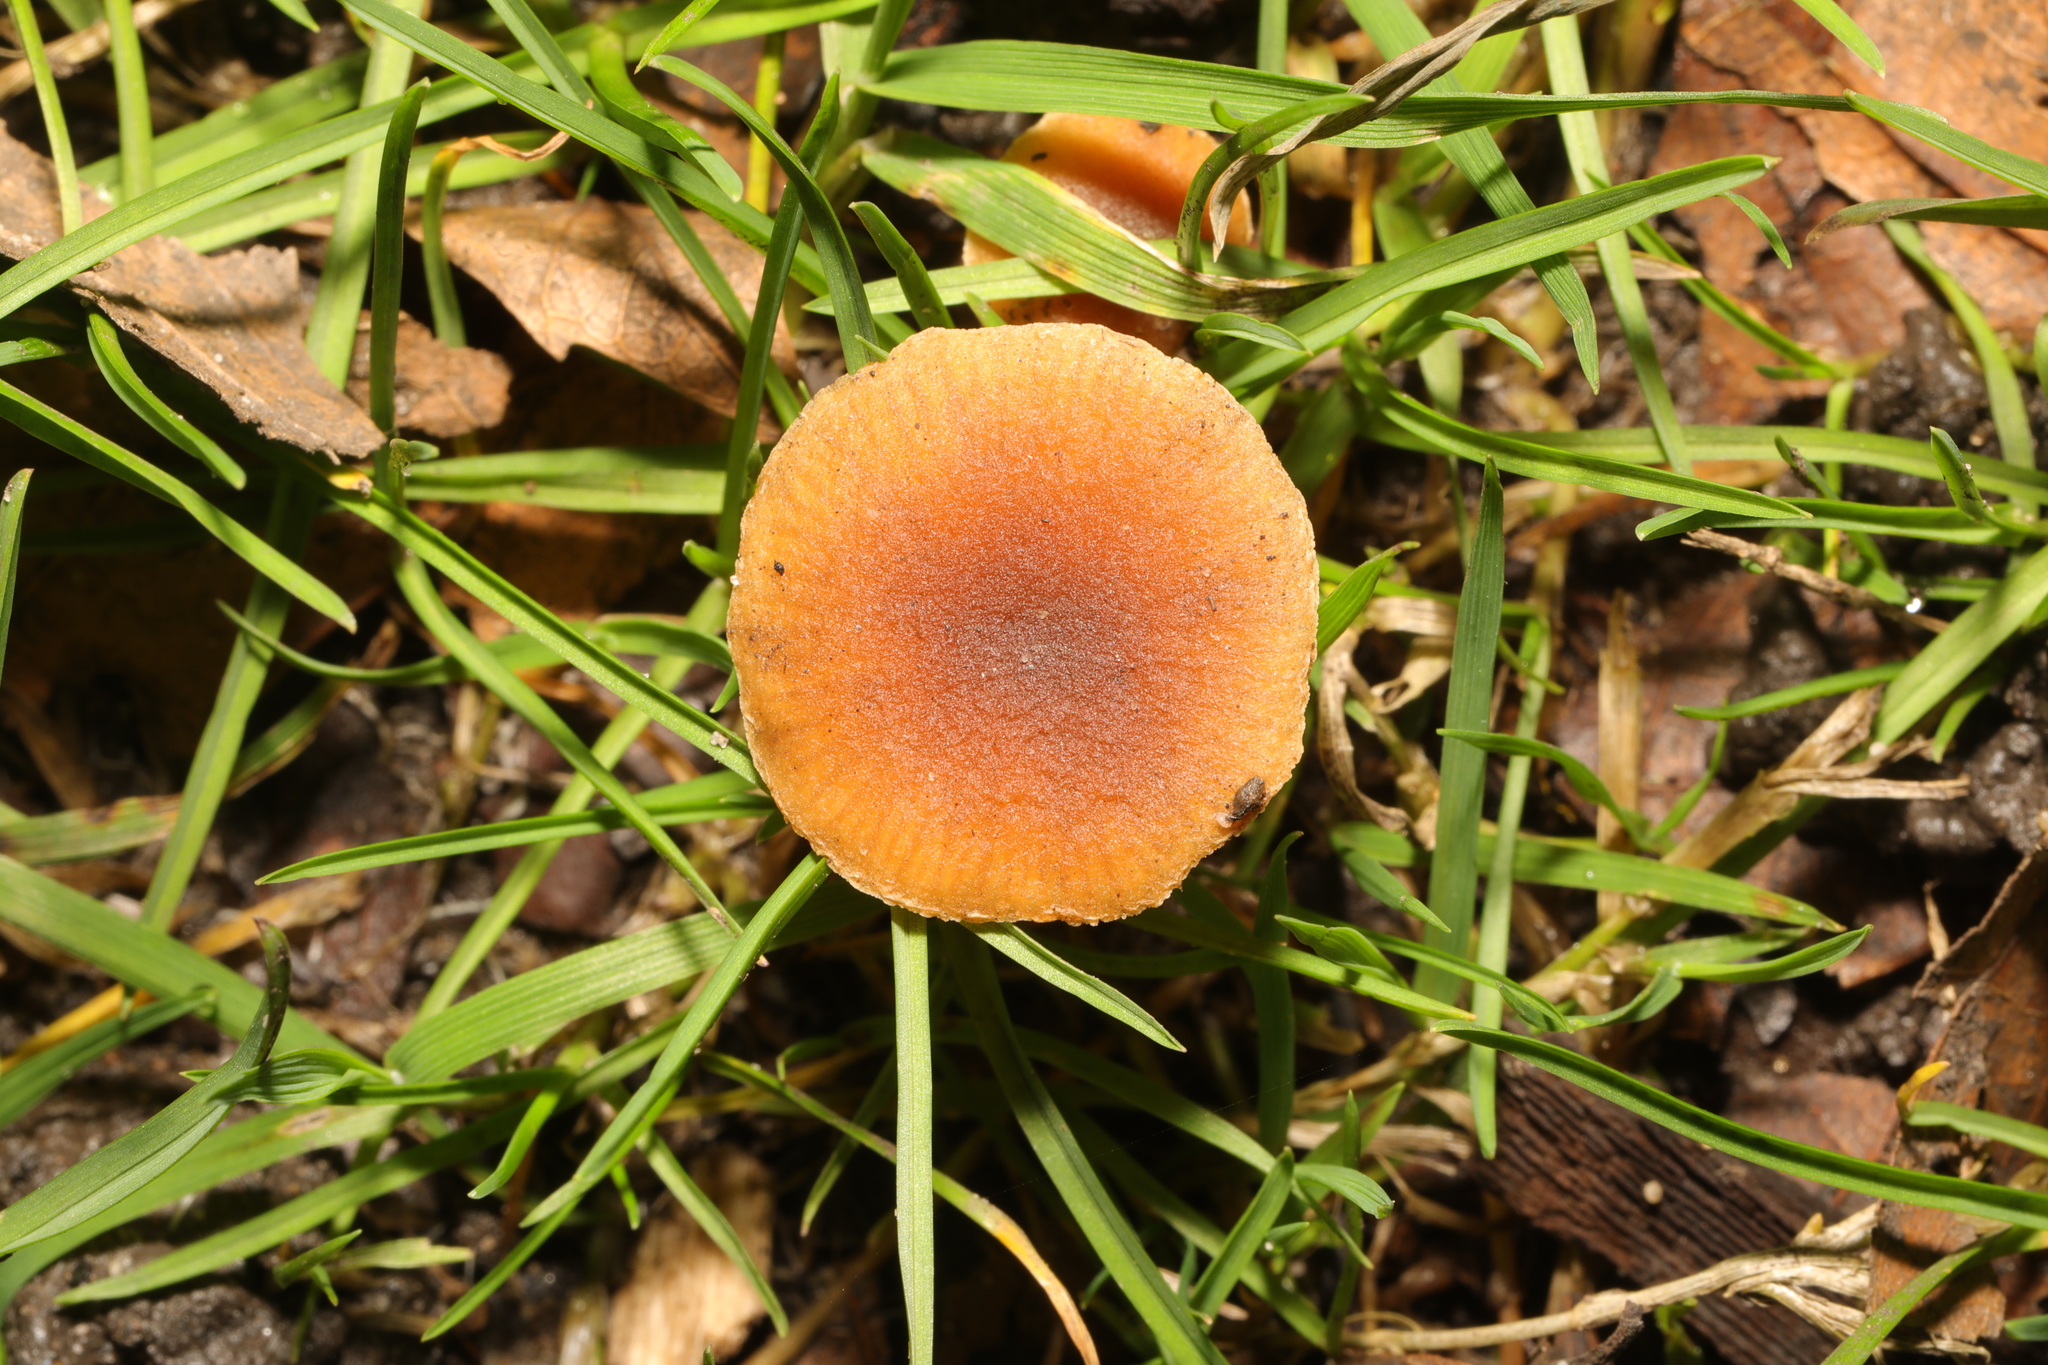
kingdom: Fungi
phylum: Basidiomycota
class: Agaricomycetes
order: Agaricales
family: Tubariaceae
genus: Tubaria
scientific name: Tubaria furfuracea
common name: Scurfy twiglet
